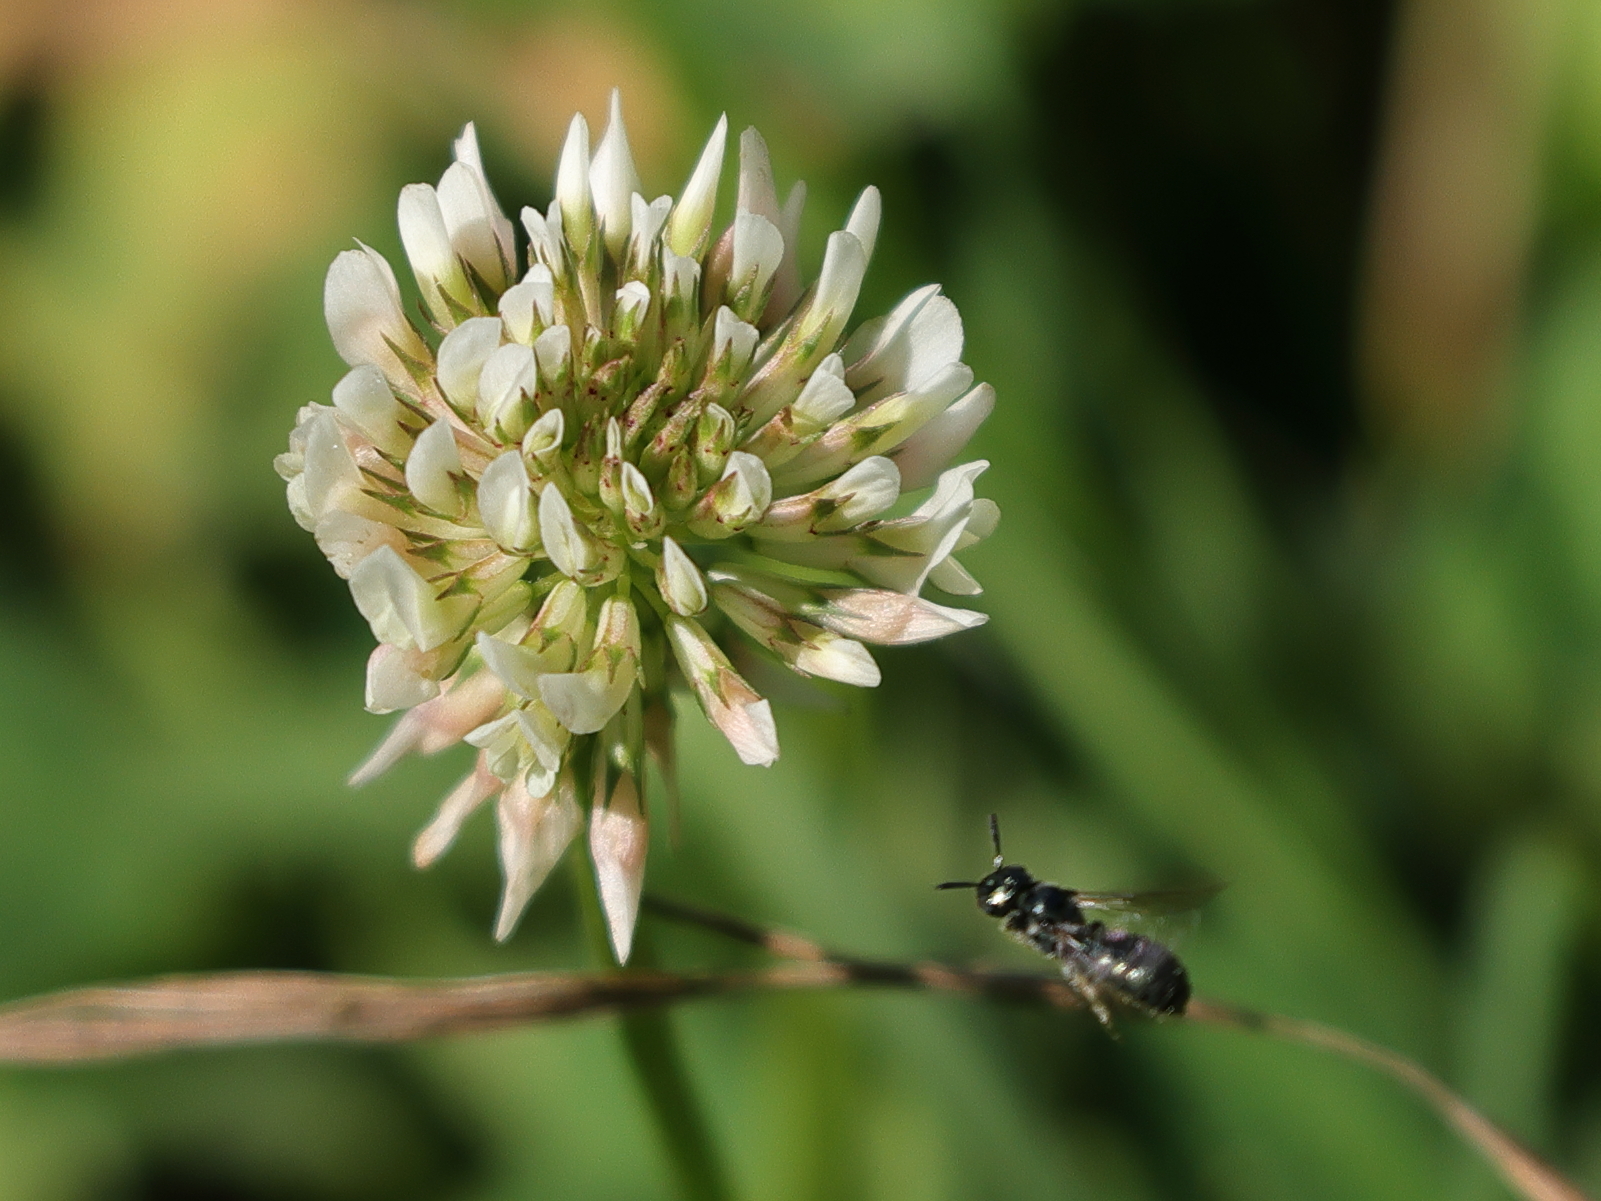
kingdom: Animalia
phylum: Arthropoda
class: Insecta
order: Hymenoptera
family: Apidae
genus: Ceratina
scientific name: Ceratina calcarata
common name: Spurred carpenter bee
